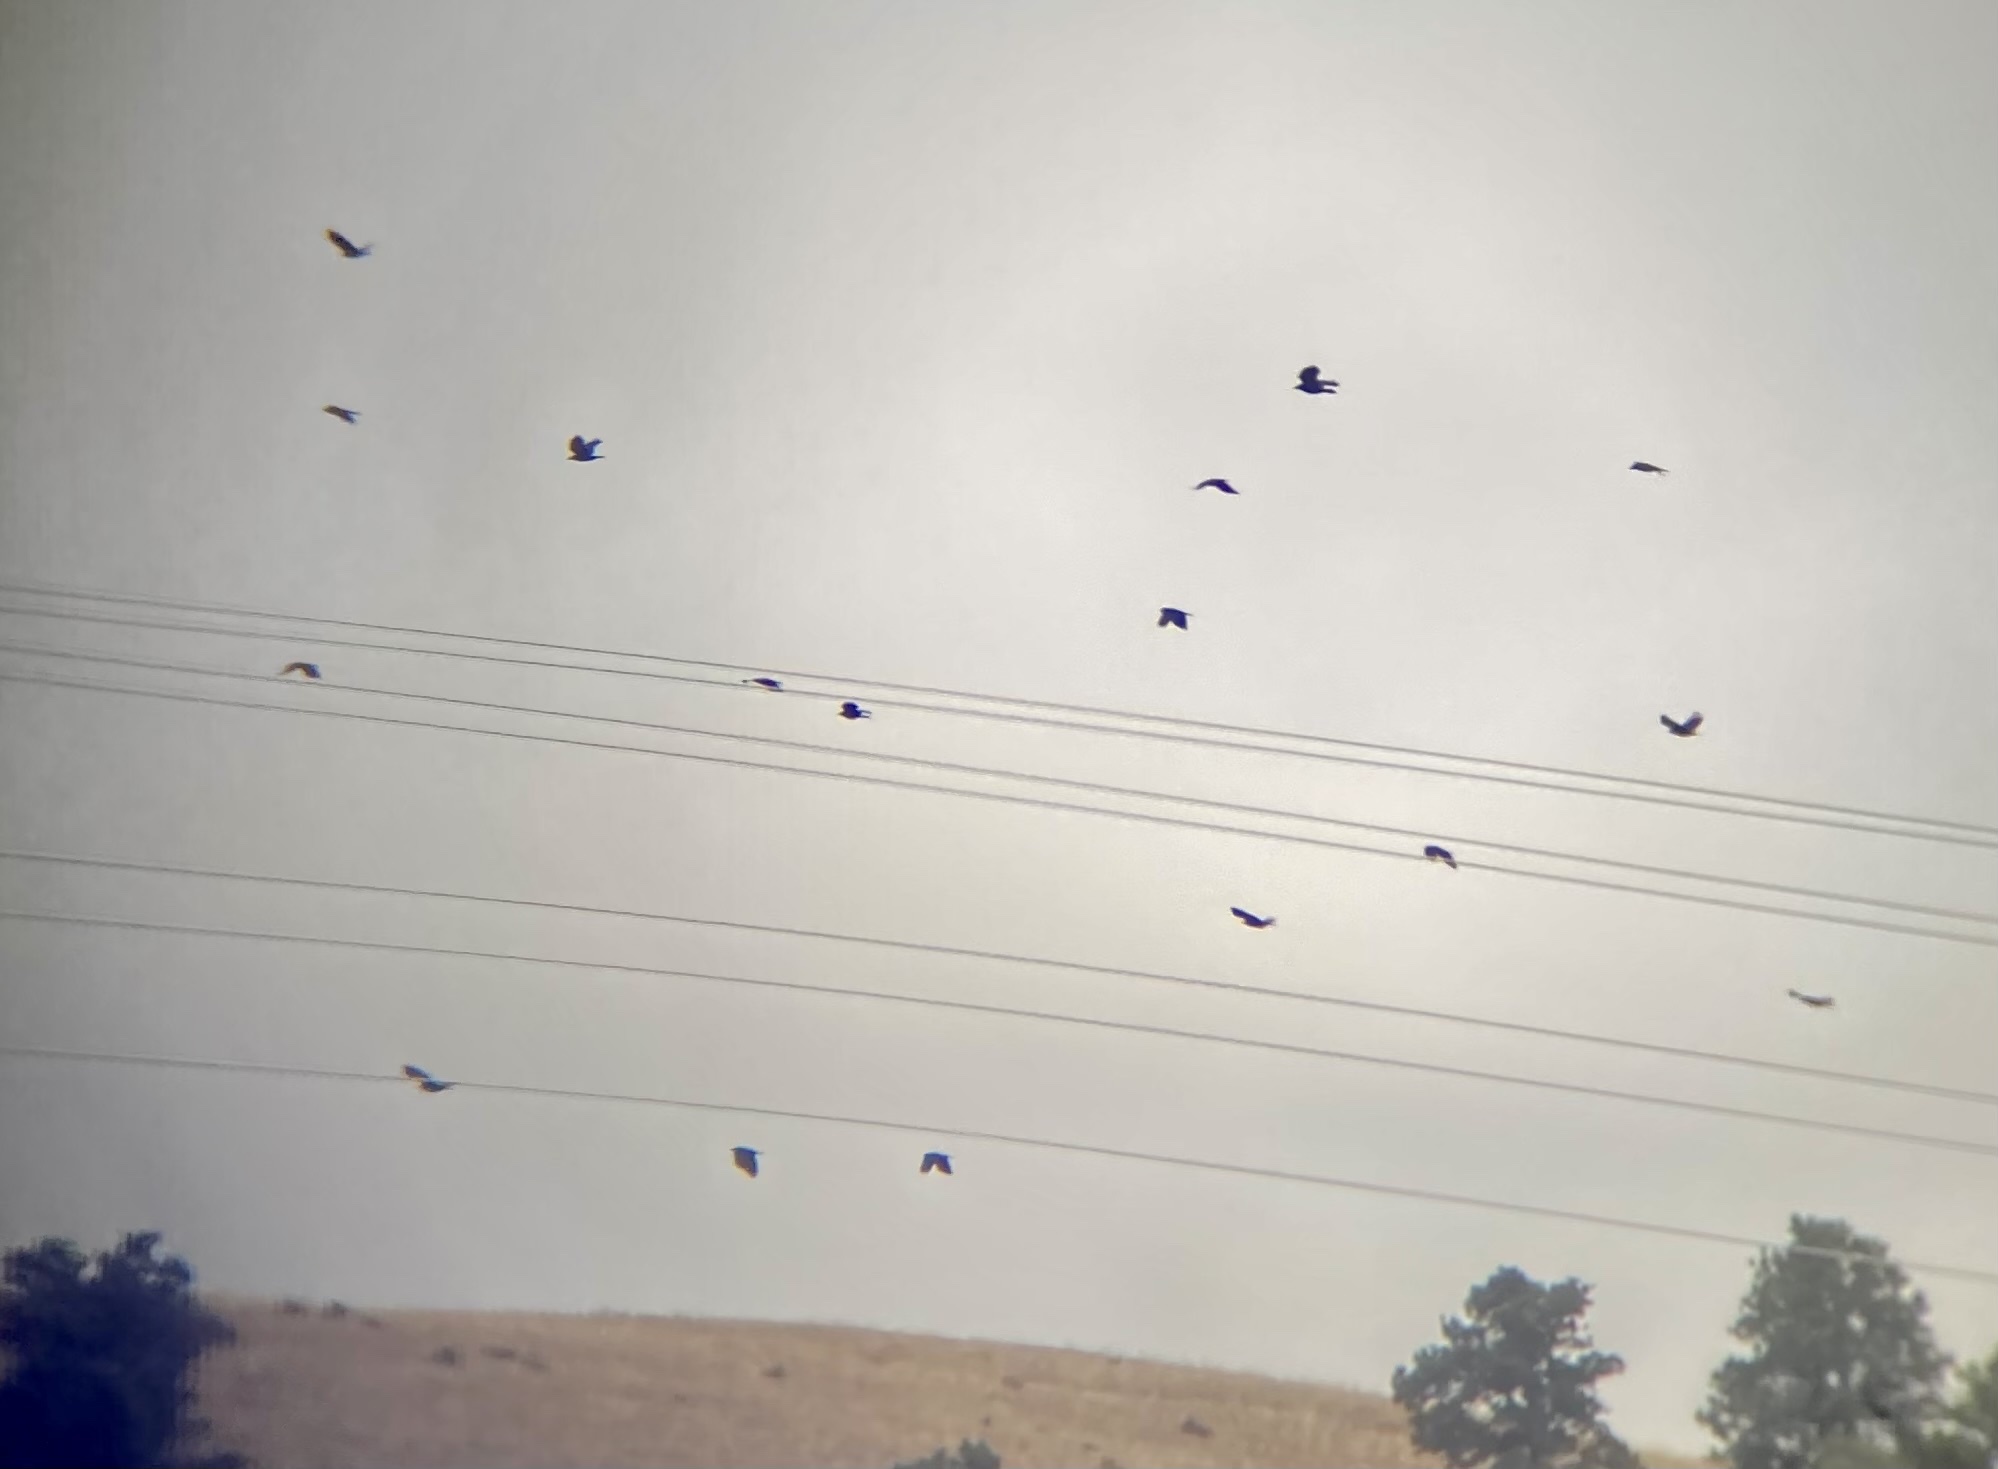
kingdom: Animalia
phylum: Chordata
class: Aves
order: Passeriformes
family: Corvidae
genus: Corvus
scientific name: Corvus brachyrhynchos
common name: American crow
